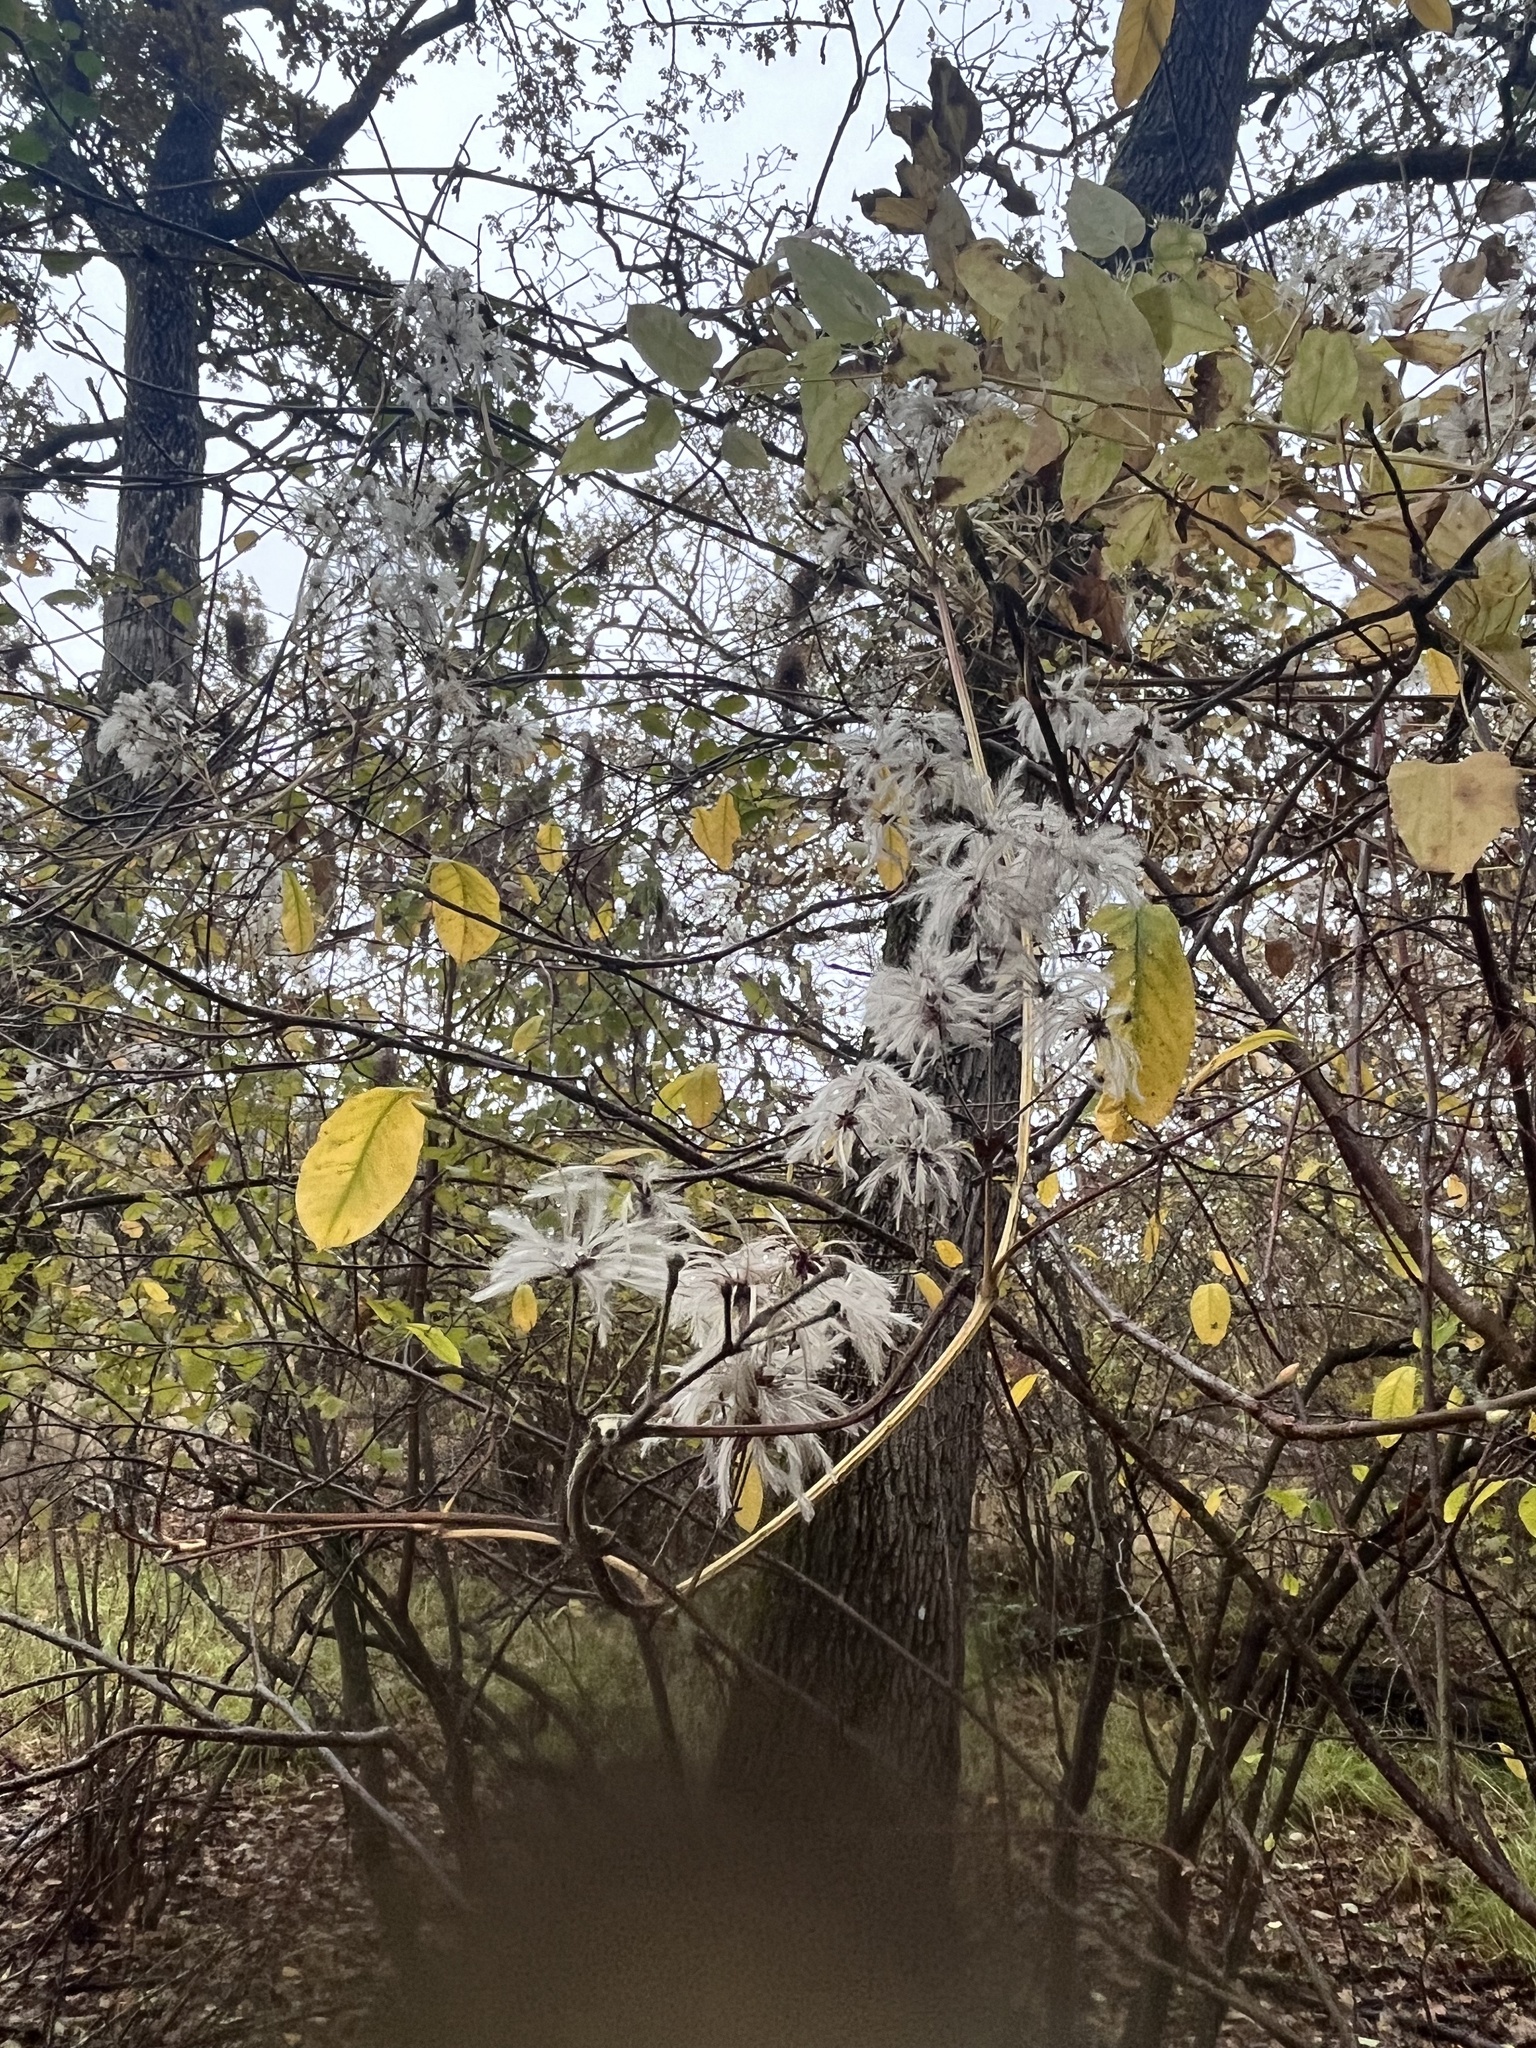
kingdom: Plantae
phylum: Tracheophyta
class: Magnoliopsida
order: Ranunculales
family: Ranunculaceae
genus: Clematis
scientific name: Clematis vitalba
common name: Evergreen clematis
